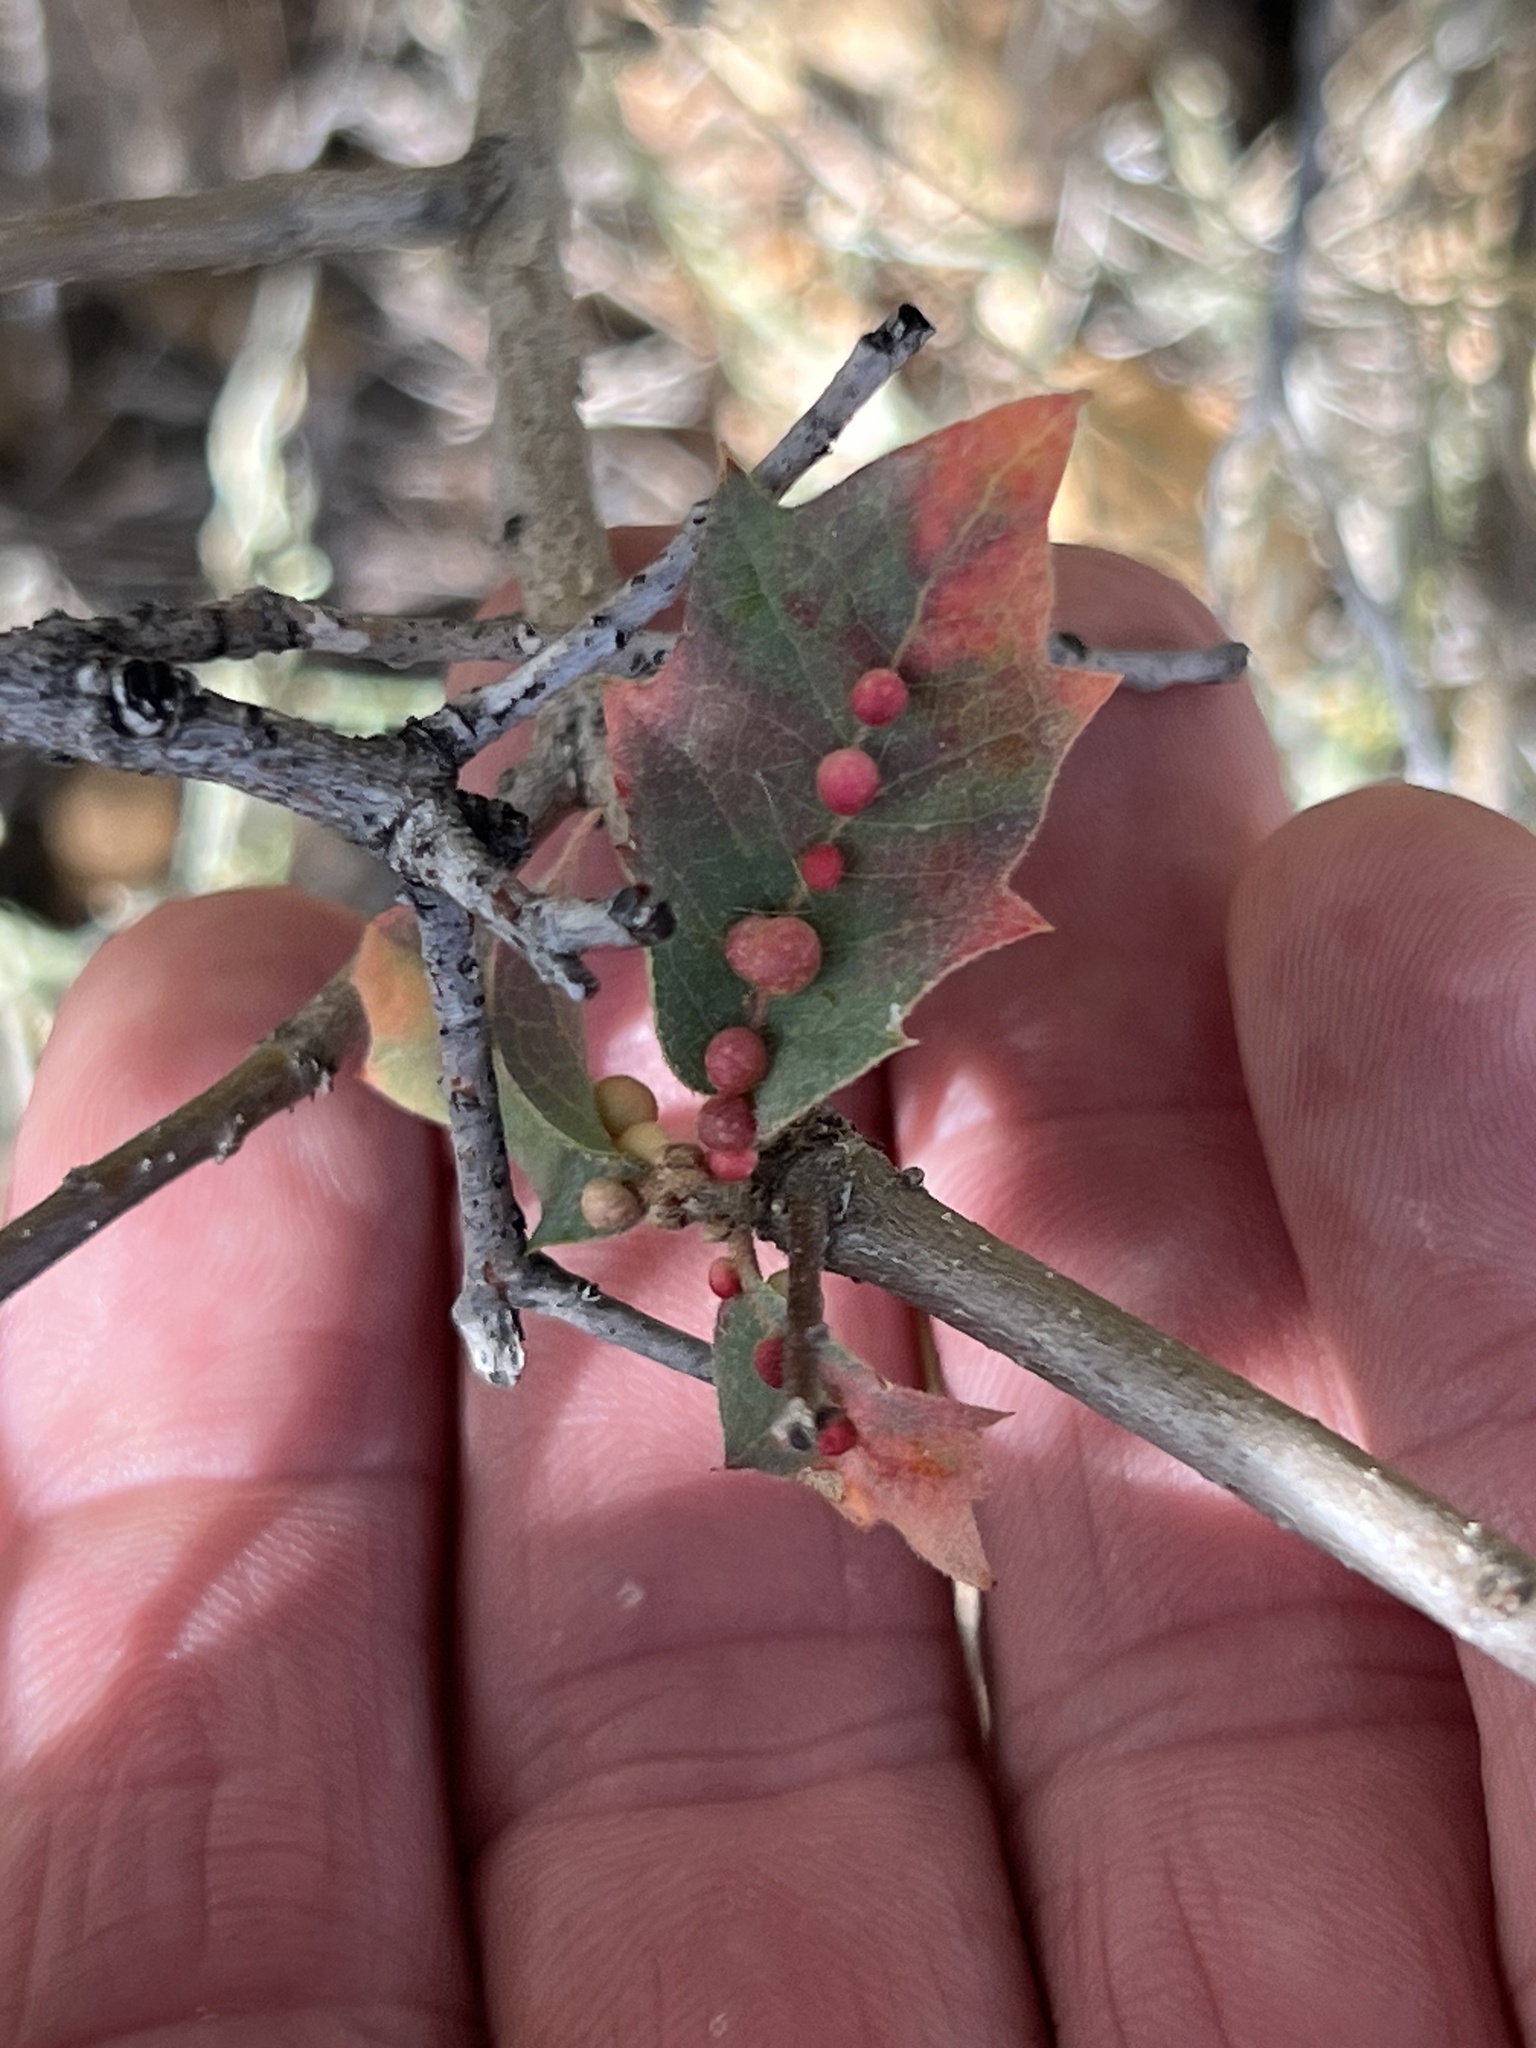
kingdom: Animalia
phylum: Arthropoda
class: Insecta
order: Hymenoptera
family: Cynipidae
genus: Trigonaspis
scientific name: Trigonaspis
